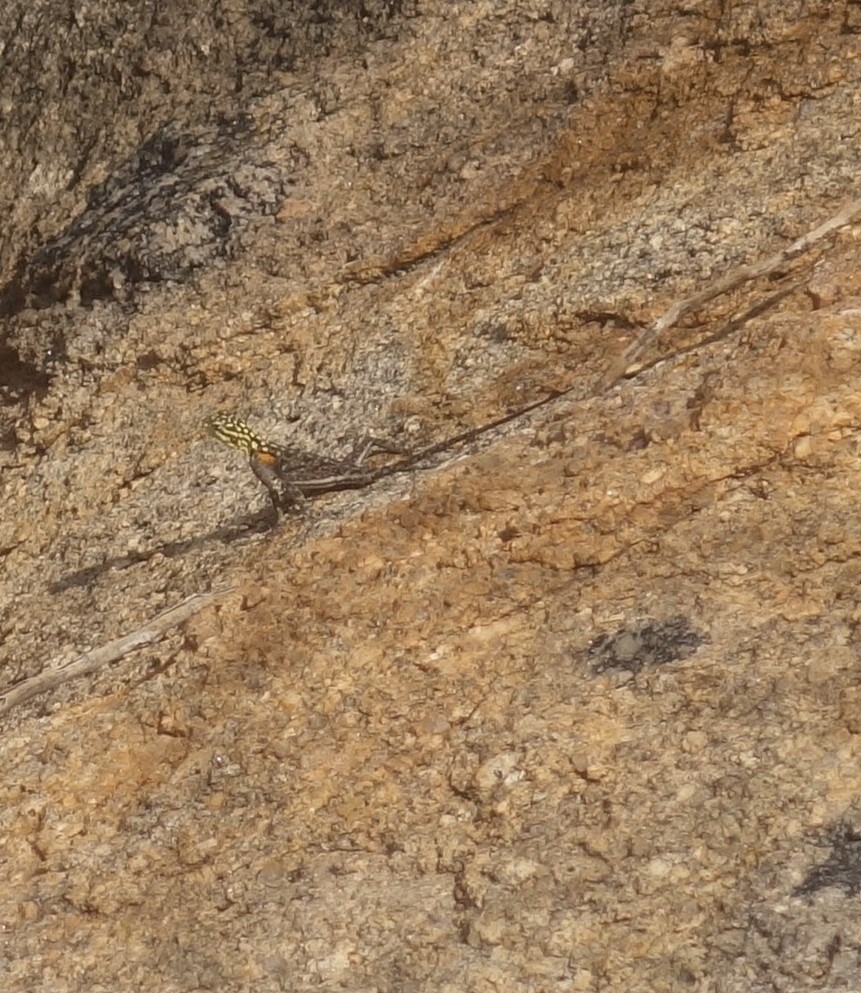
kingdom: Animalia
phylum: Chordata
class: Squamata
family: Agamidae
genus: Agama
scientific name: Agama planiceps
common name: Namib rock agama
